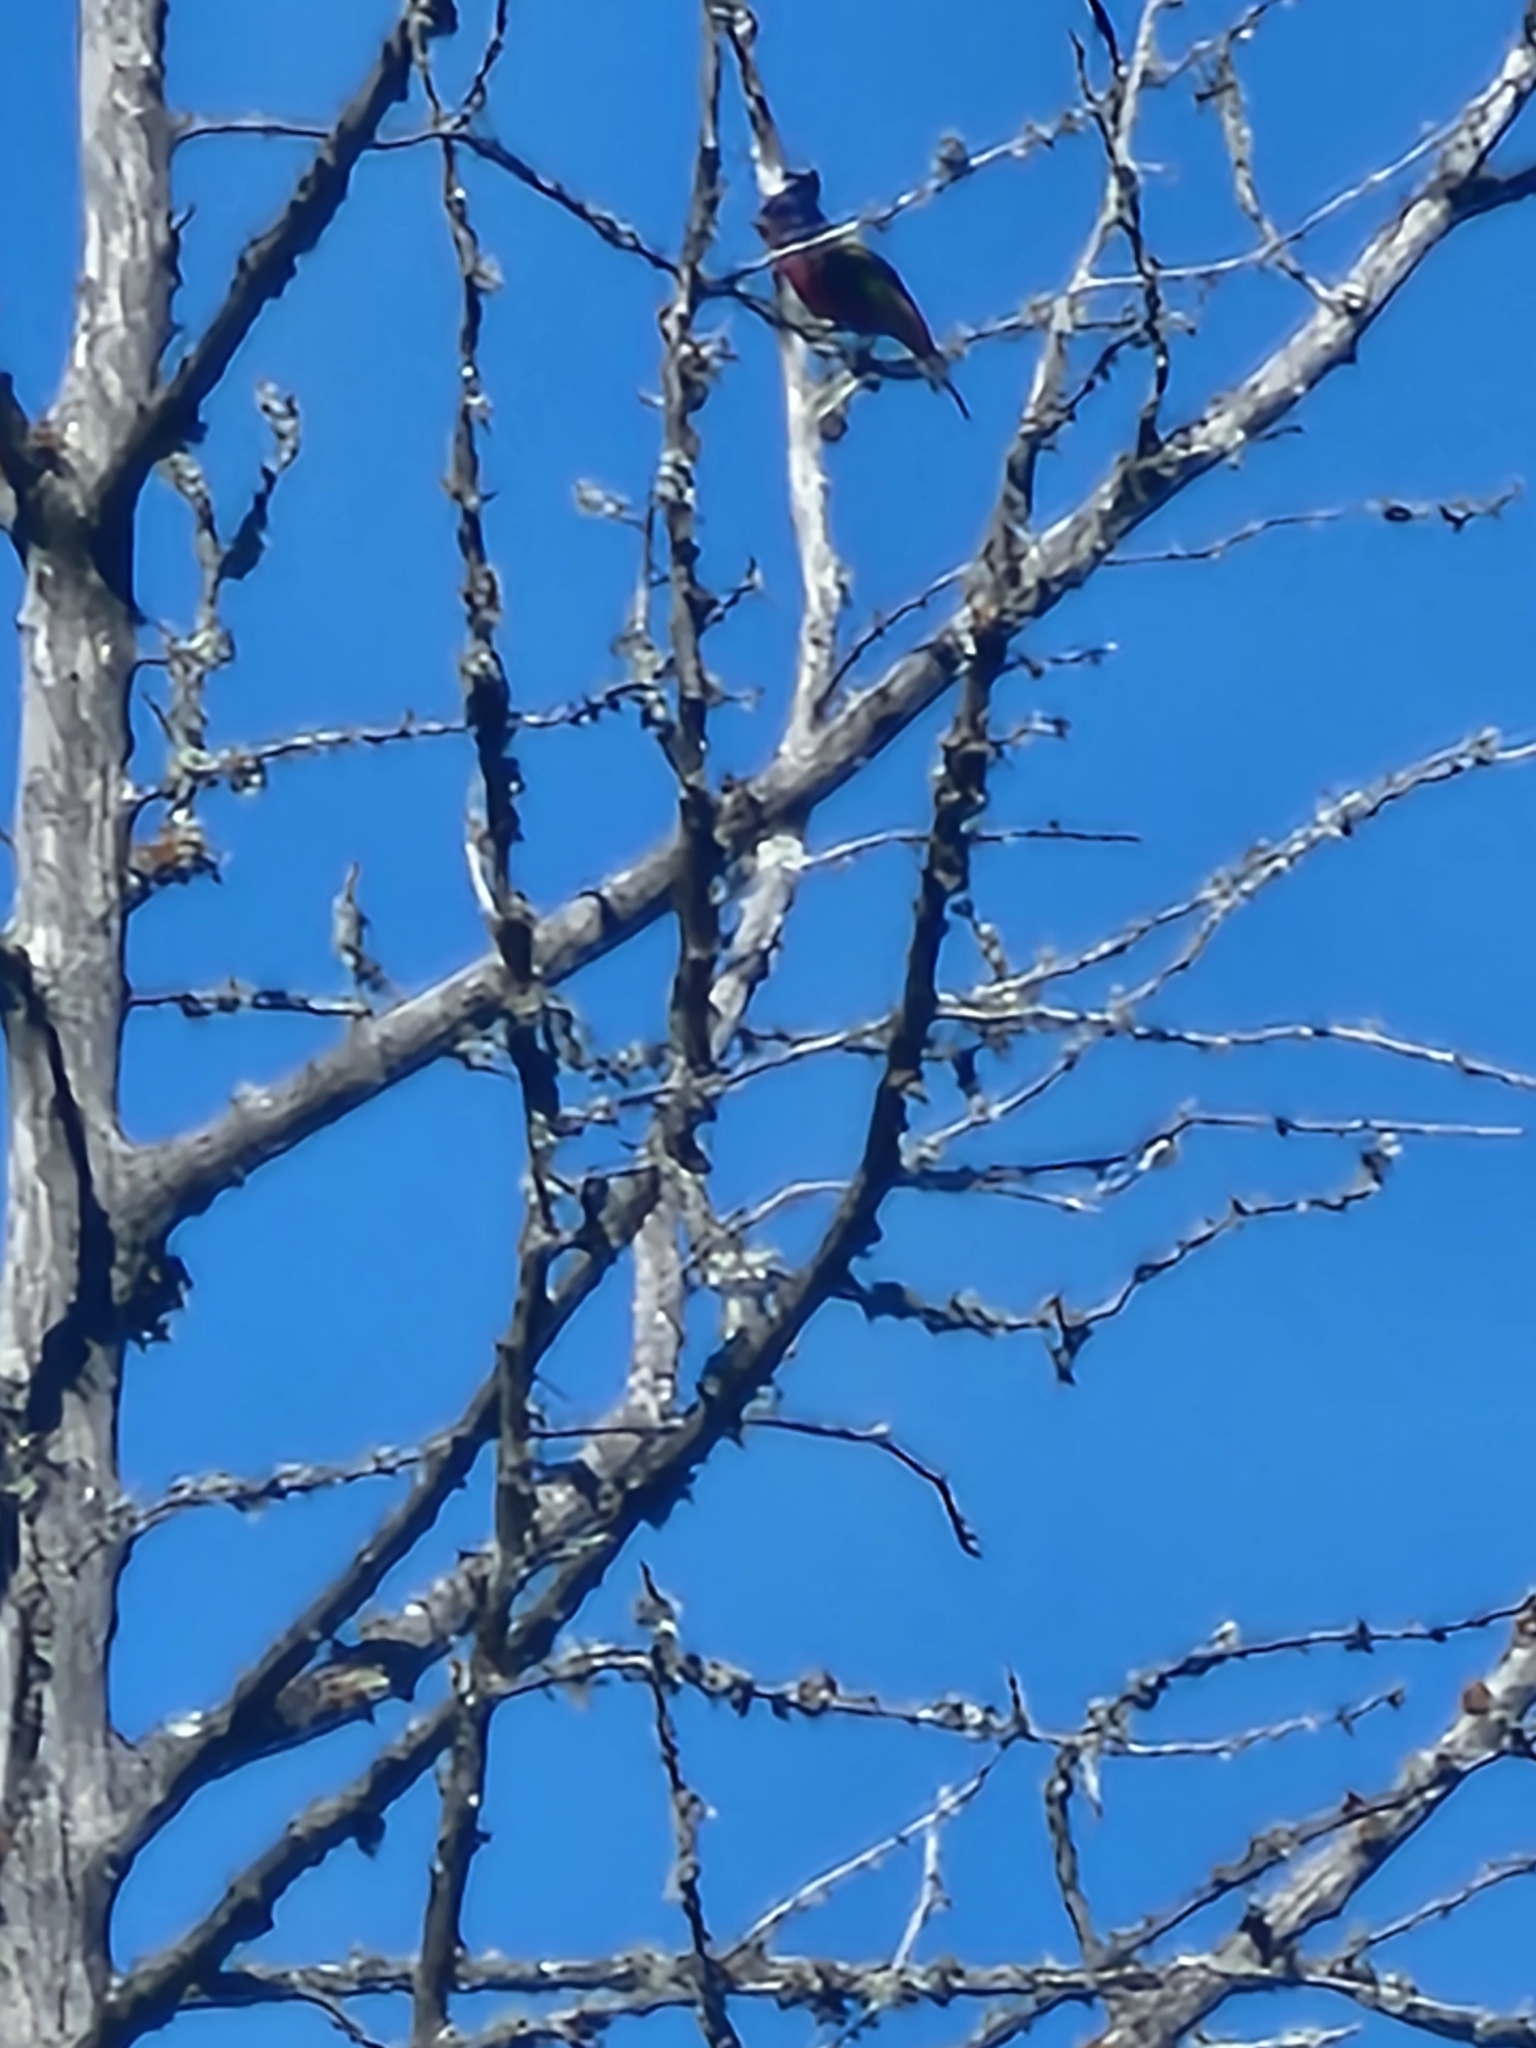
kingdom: Animalia
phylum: Chordata
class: Aves
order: Passeriformes
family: Cardinalidae
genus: Passerina
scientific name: Passerina ciris
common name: Painted bunting
